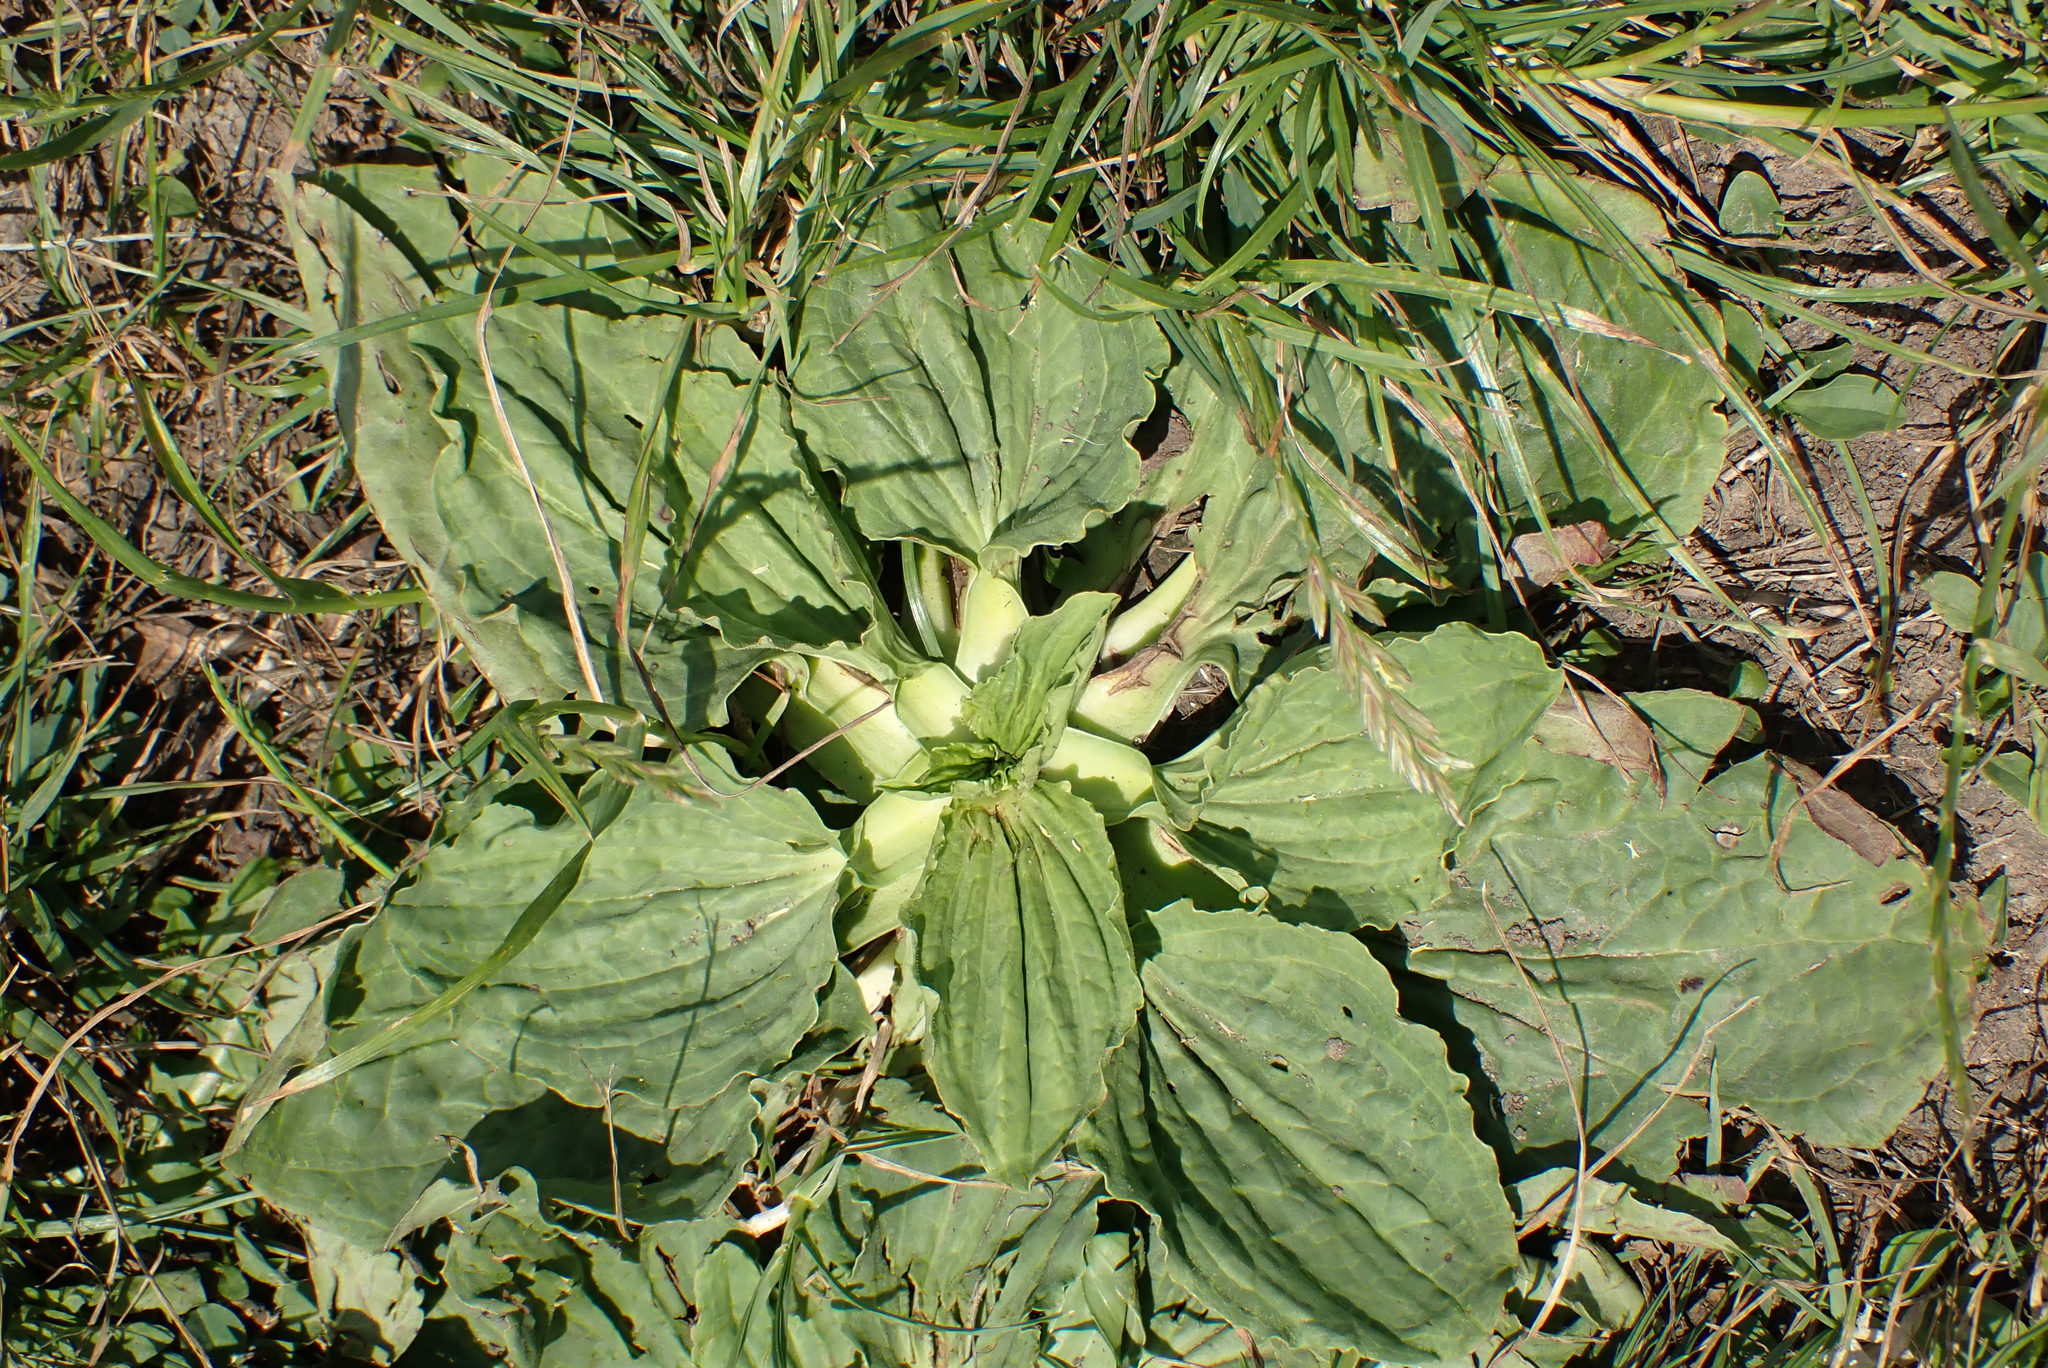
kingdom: Plantae
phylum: Tracheophyta
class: Magnoliopsida
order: Lamiales
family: Plantaginaceae
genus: Plantago
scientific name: Plantago major
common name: Common plantain
